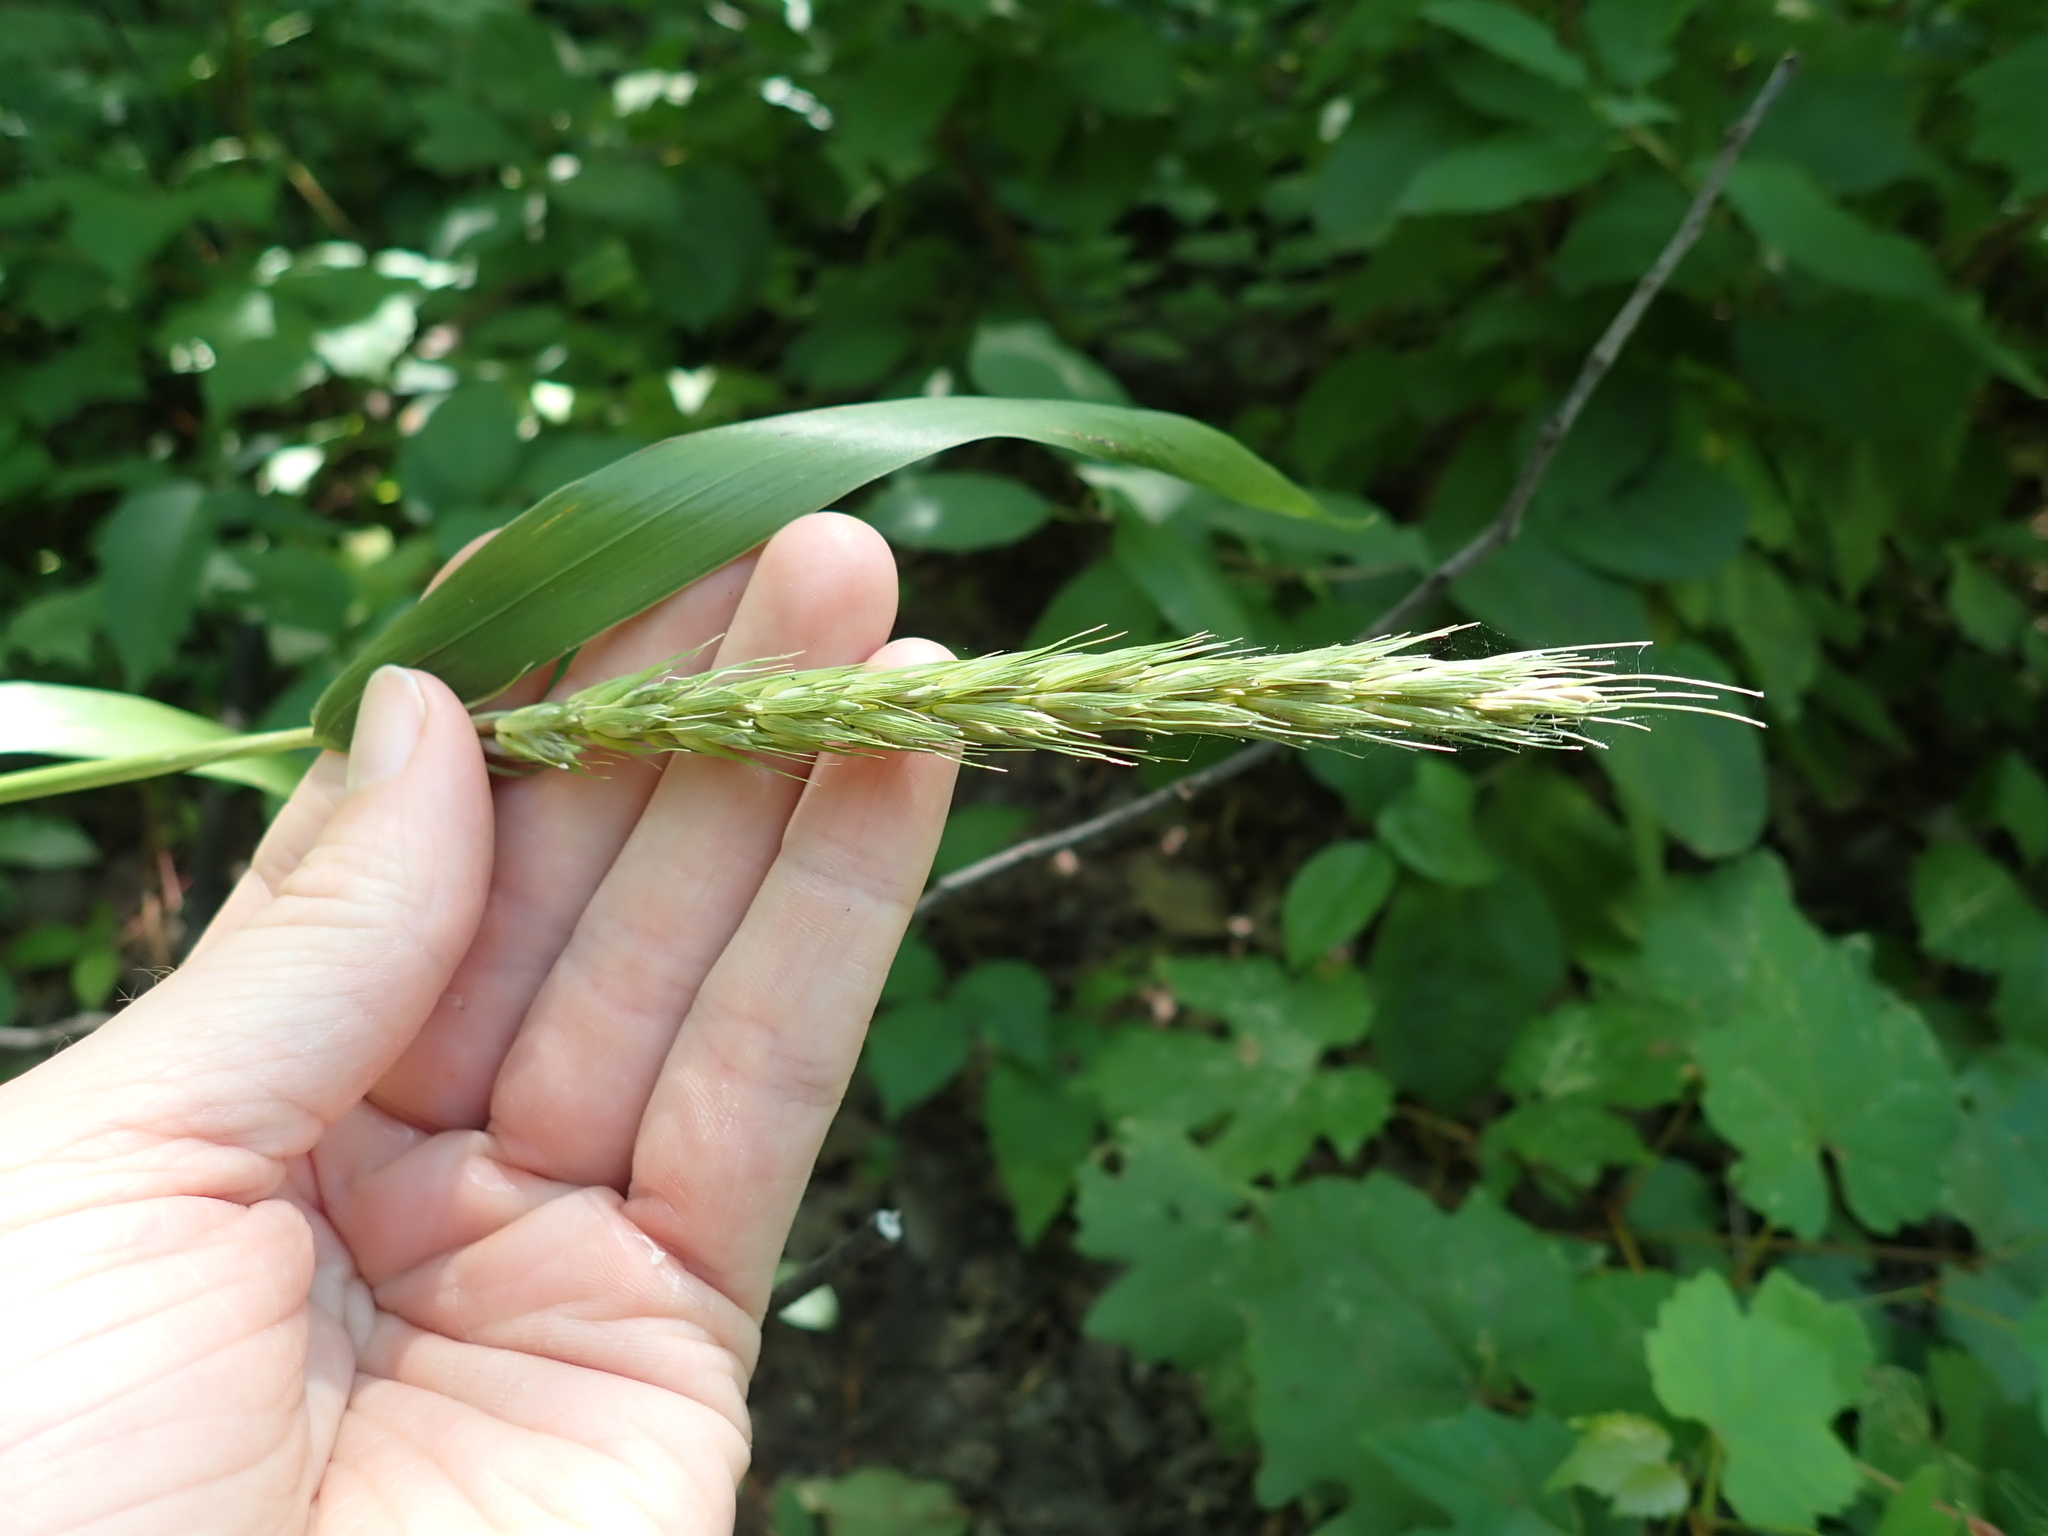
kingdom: Plantae
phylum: Tracheophyta
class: Liliopsida
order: Poales
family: Poaceae
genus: Elymus
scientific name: Elymus virginicus
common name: Common eastern wildrye
